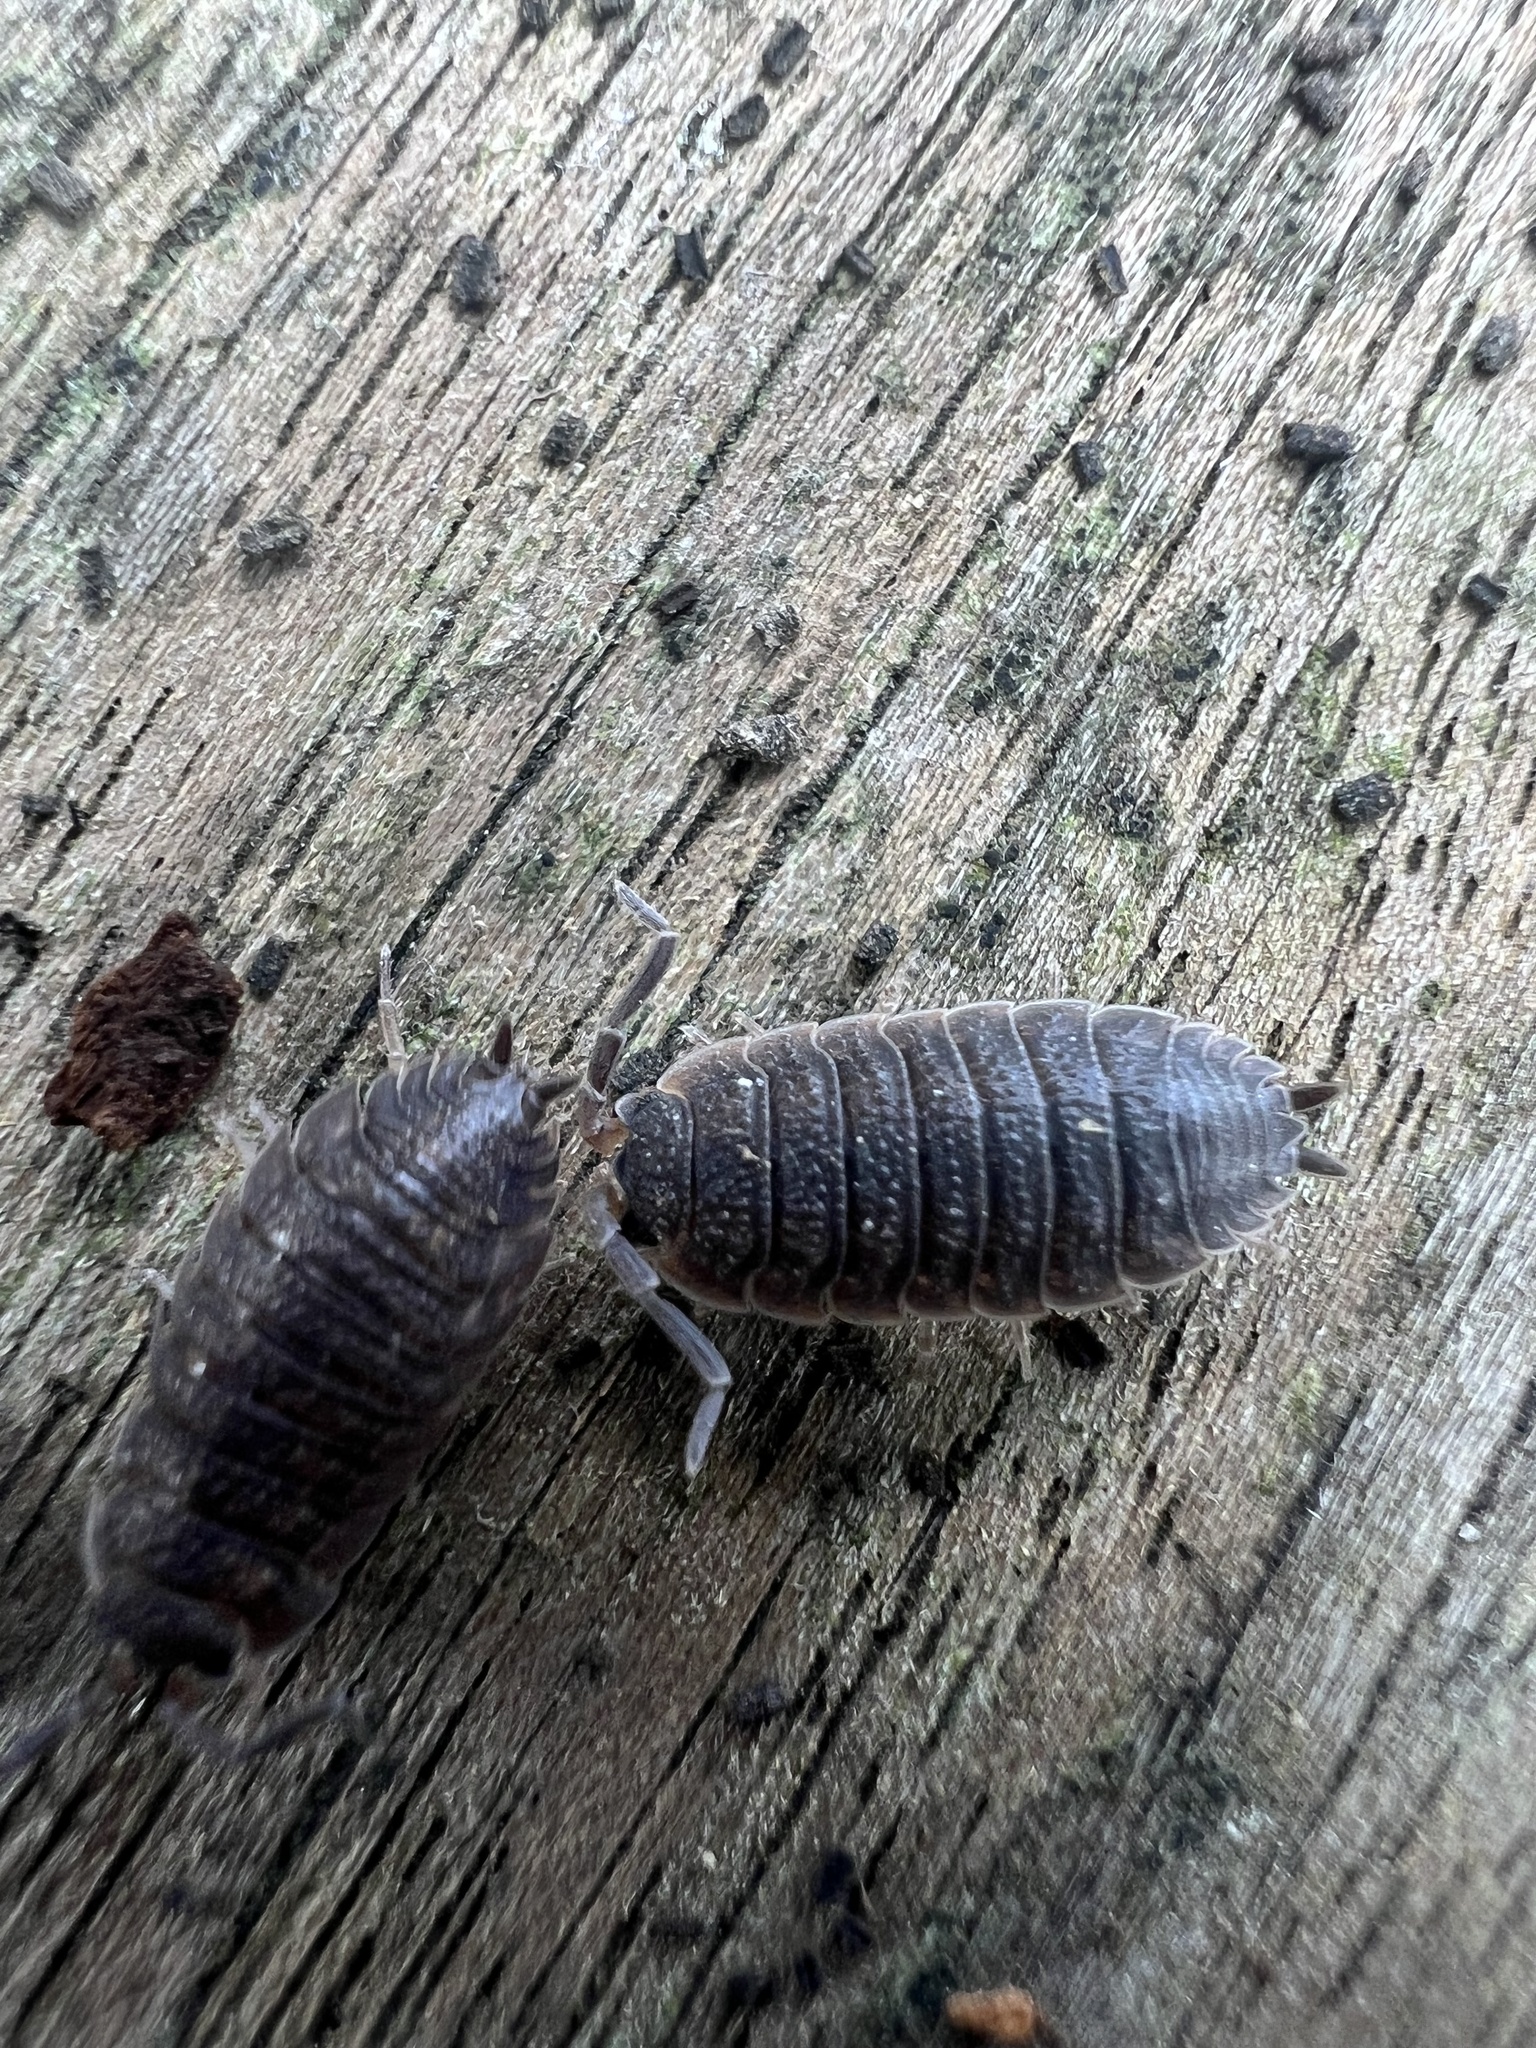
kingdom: Animalia
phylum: Arthropoda
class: Malacostraca
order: Isopoda
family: Porcellionidae
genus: Porcellio
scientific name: Porcellio scaber
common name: Common rough woodlouse
